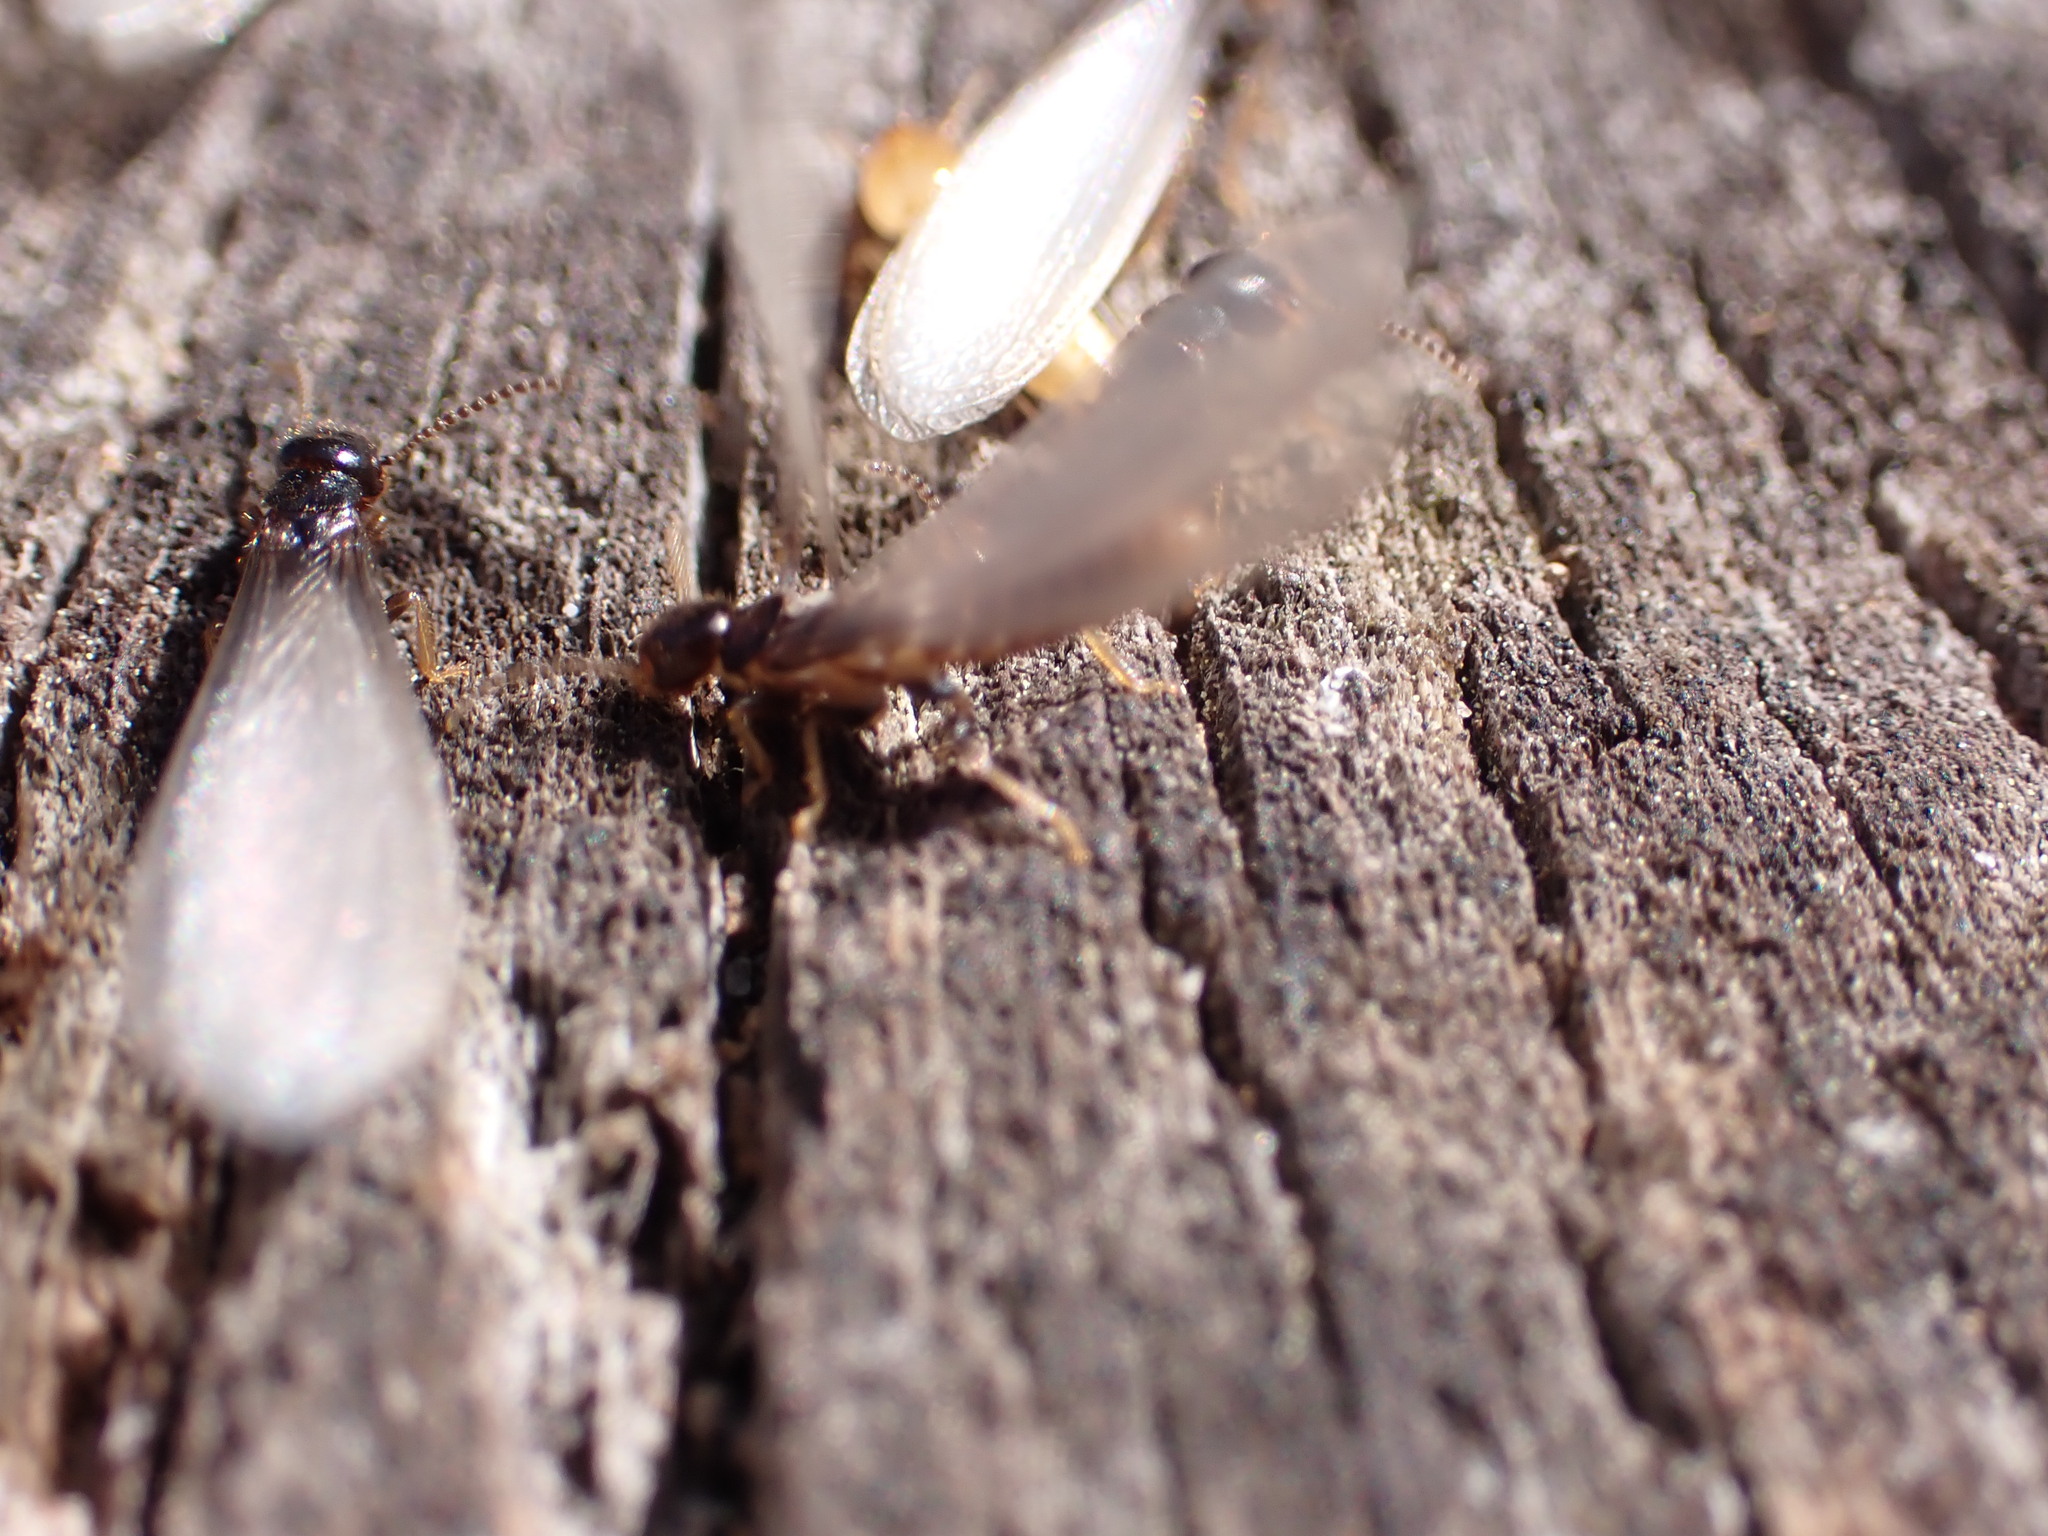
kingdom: Animalia
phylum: Arthropoda
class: Insecta
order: Blattodea
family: Rhinotermitidae
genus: Reticulitermes
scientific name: Reticulitermes flavipes
